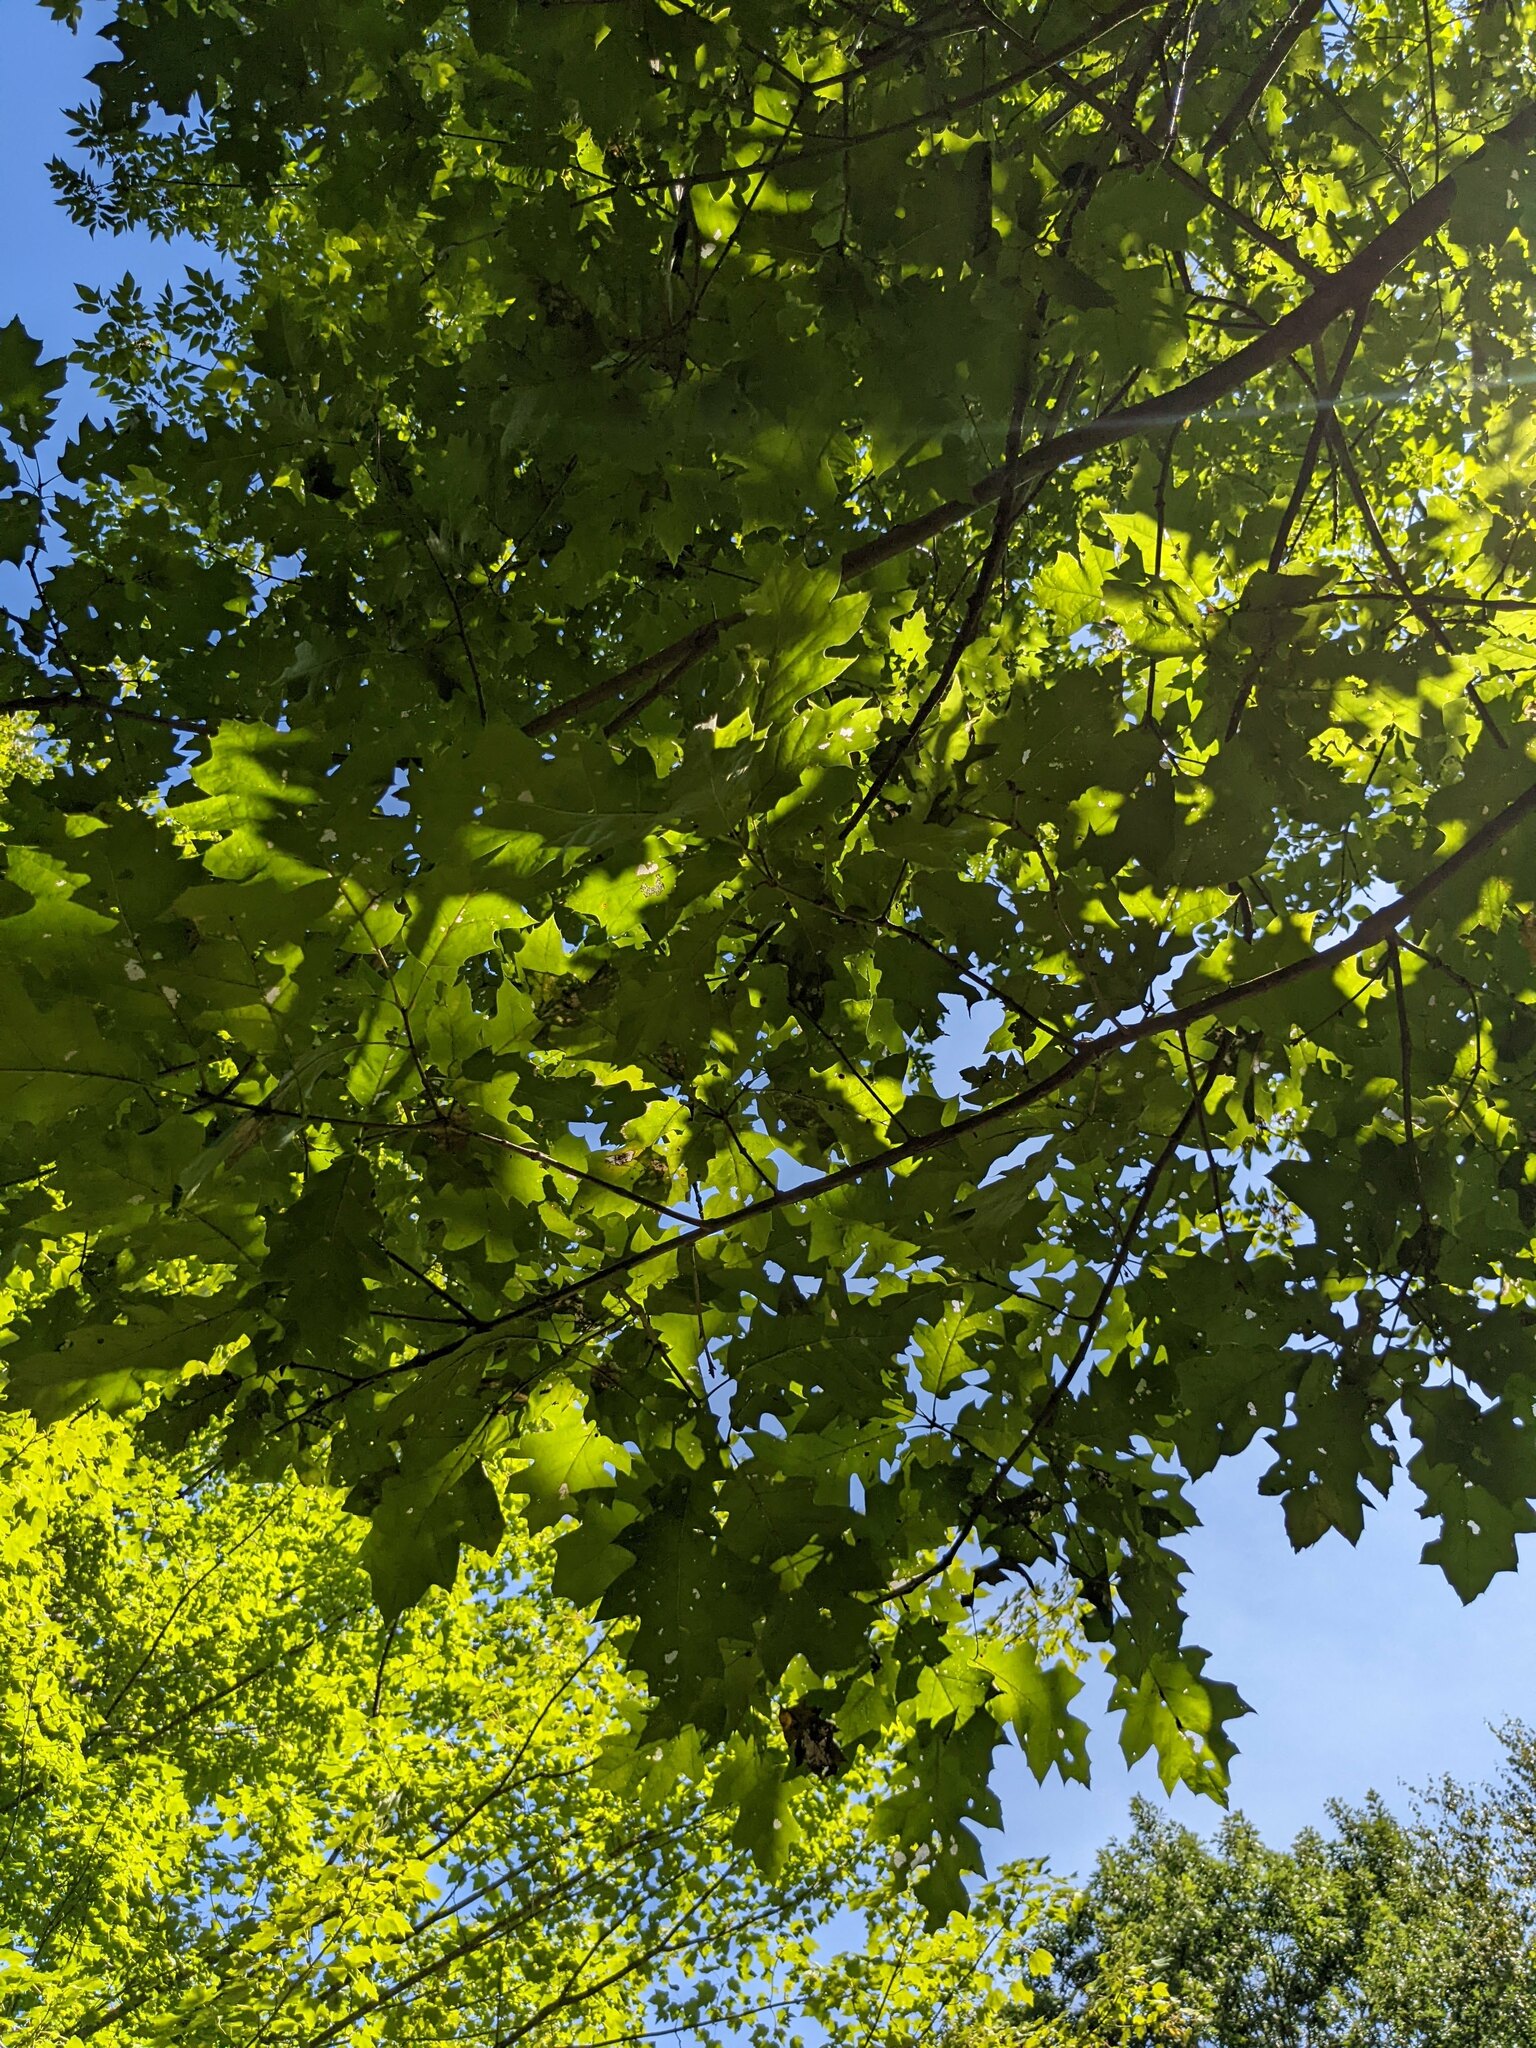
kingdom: Plantae
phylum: Tracheophyta
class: Magnoliopsida
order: Fagales
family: Fagaceae
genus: Quercus
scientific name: Quercus rubra
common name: Red oak
